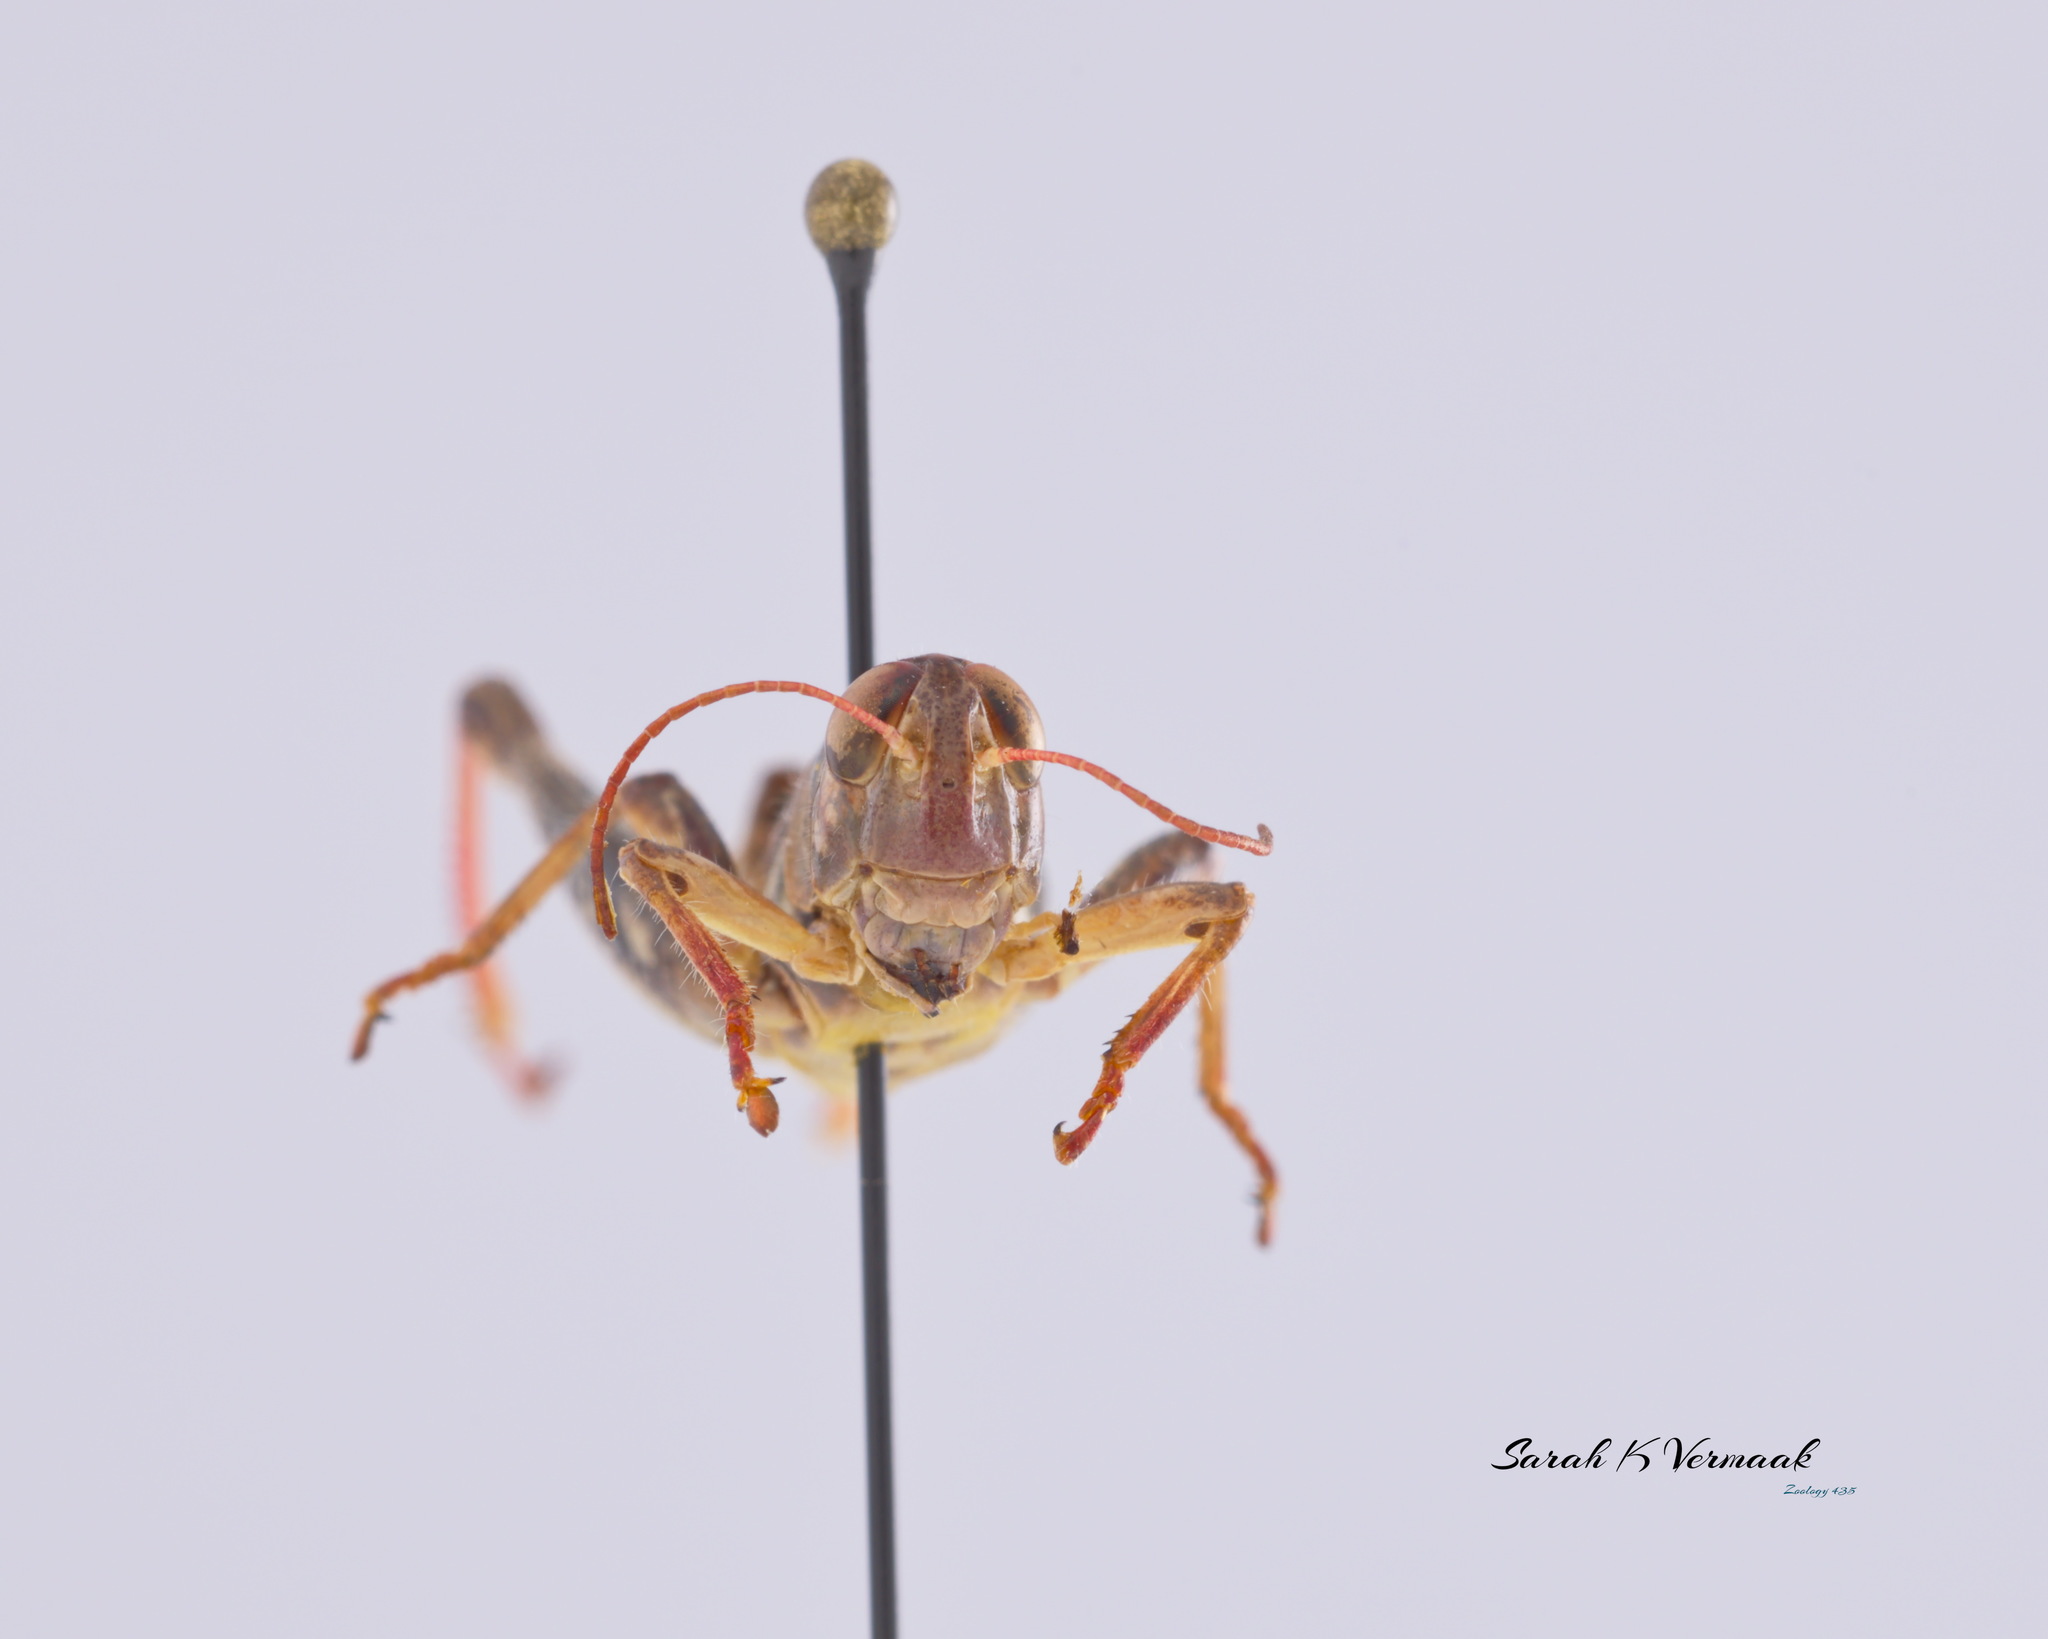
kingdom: Animalia
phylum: Arthropoda
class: Insecta
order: Orthoptera
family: Acrididae
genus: Melanoplus
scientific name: Melanoplus dawsoni
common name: Dawson grasshopper
